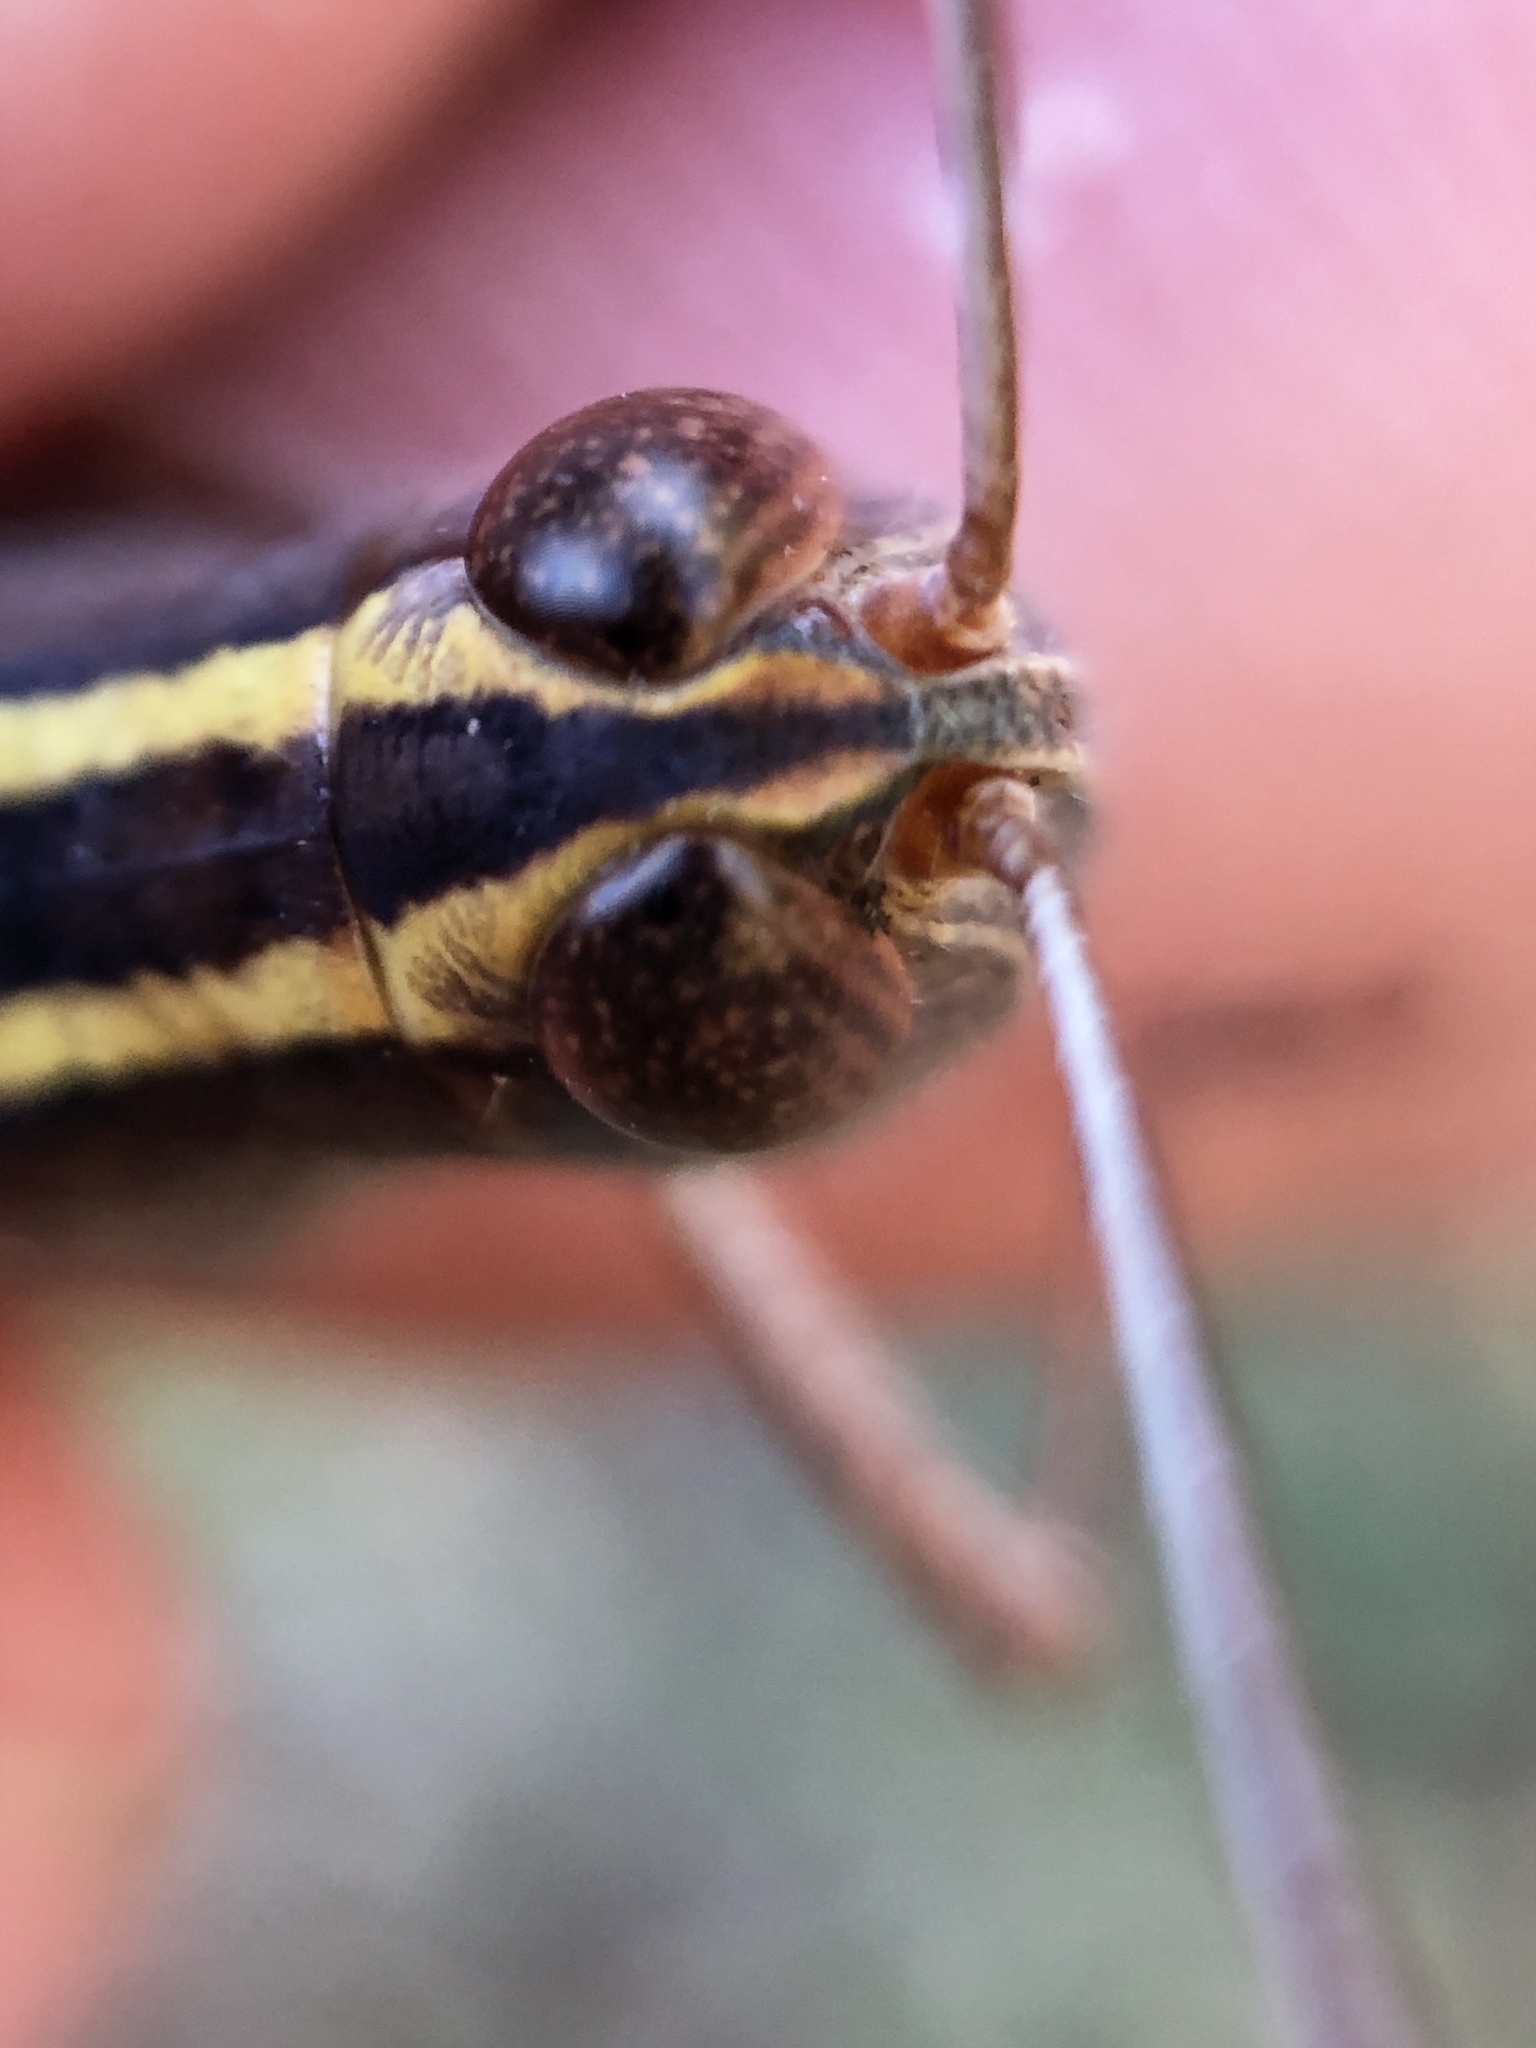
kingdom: Animalia
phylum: Arthropoda
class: Insecta
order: Orthoptera
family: Acrididae
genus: Macrocara
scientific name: Macrocara conglobata
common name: Rainbow grasshopper
